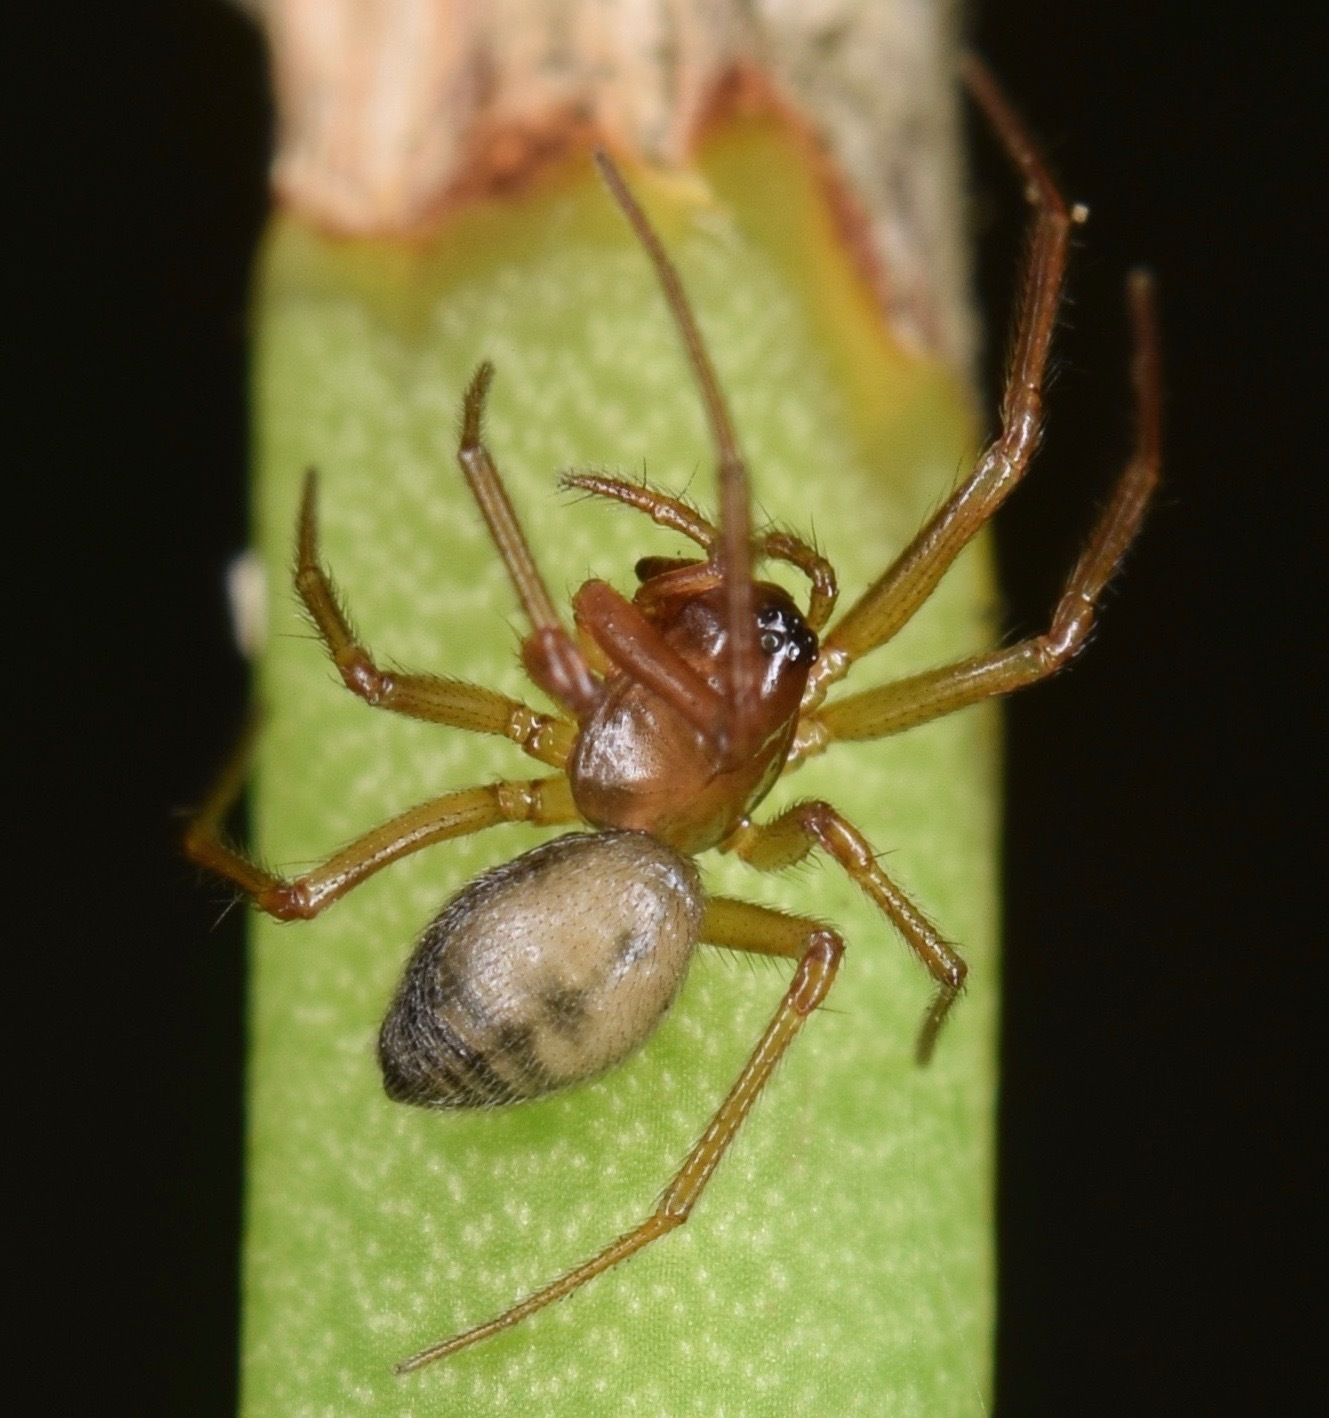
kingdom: Animalia
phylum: Arthropoda
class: Arachnida
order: Araneae
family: Linyphiidae
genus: Grammonota
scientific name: Grammonota
